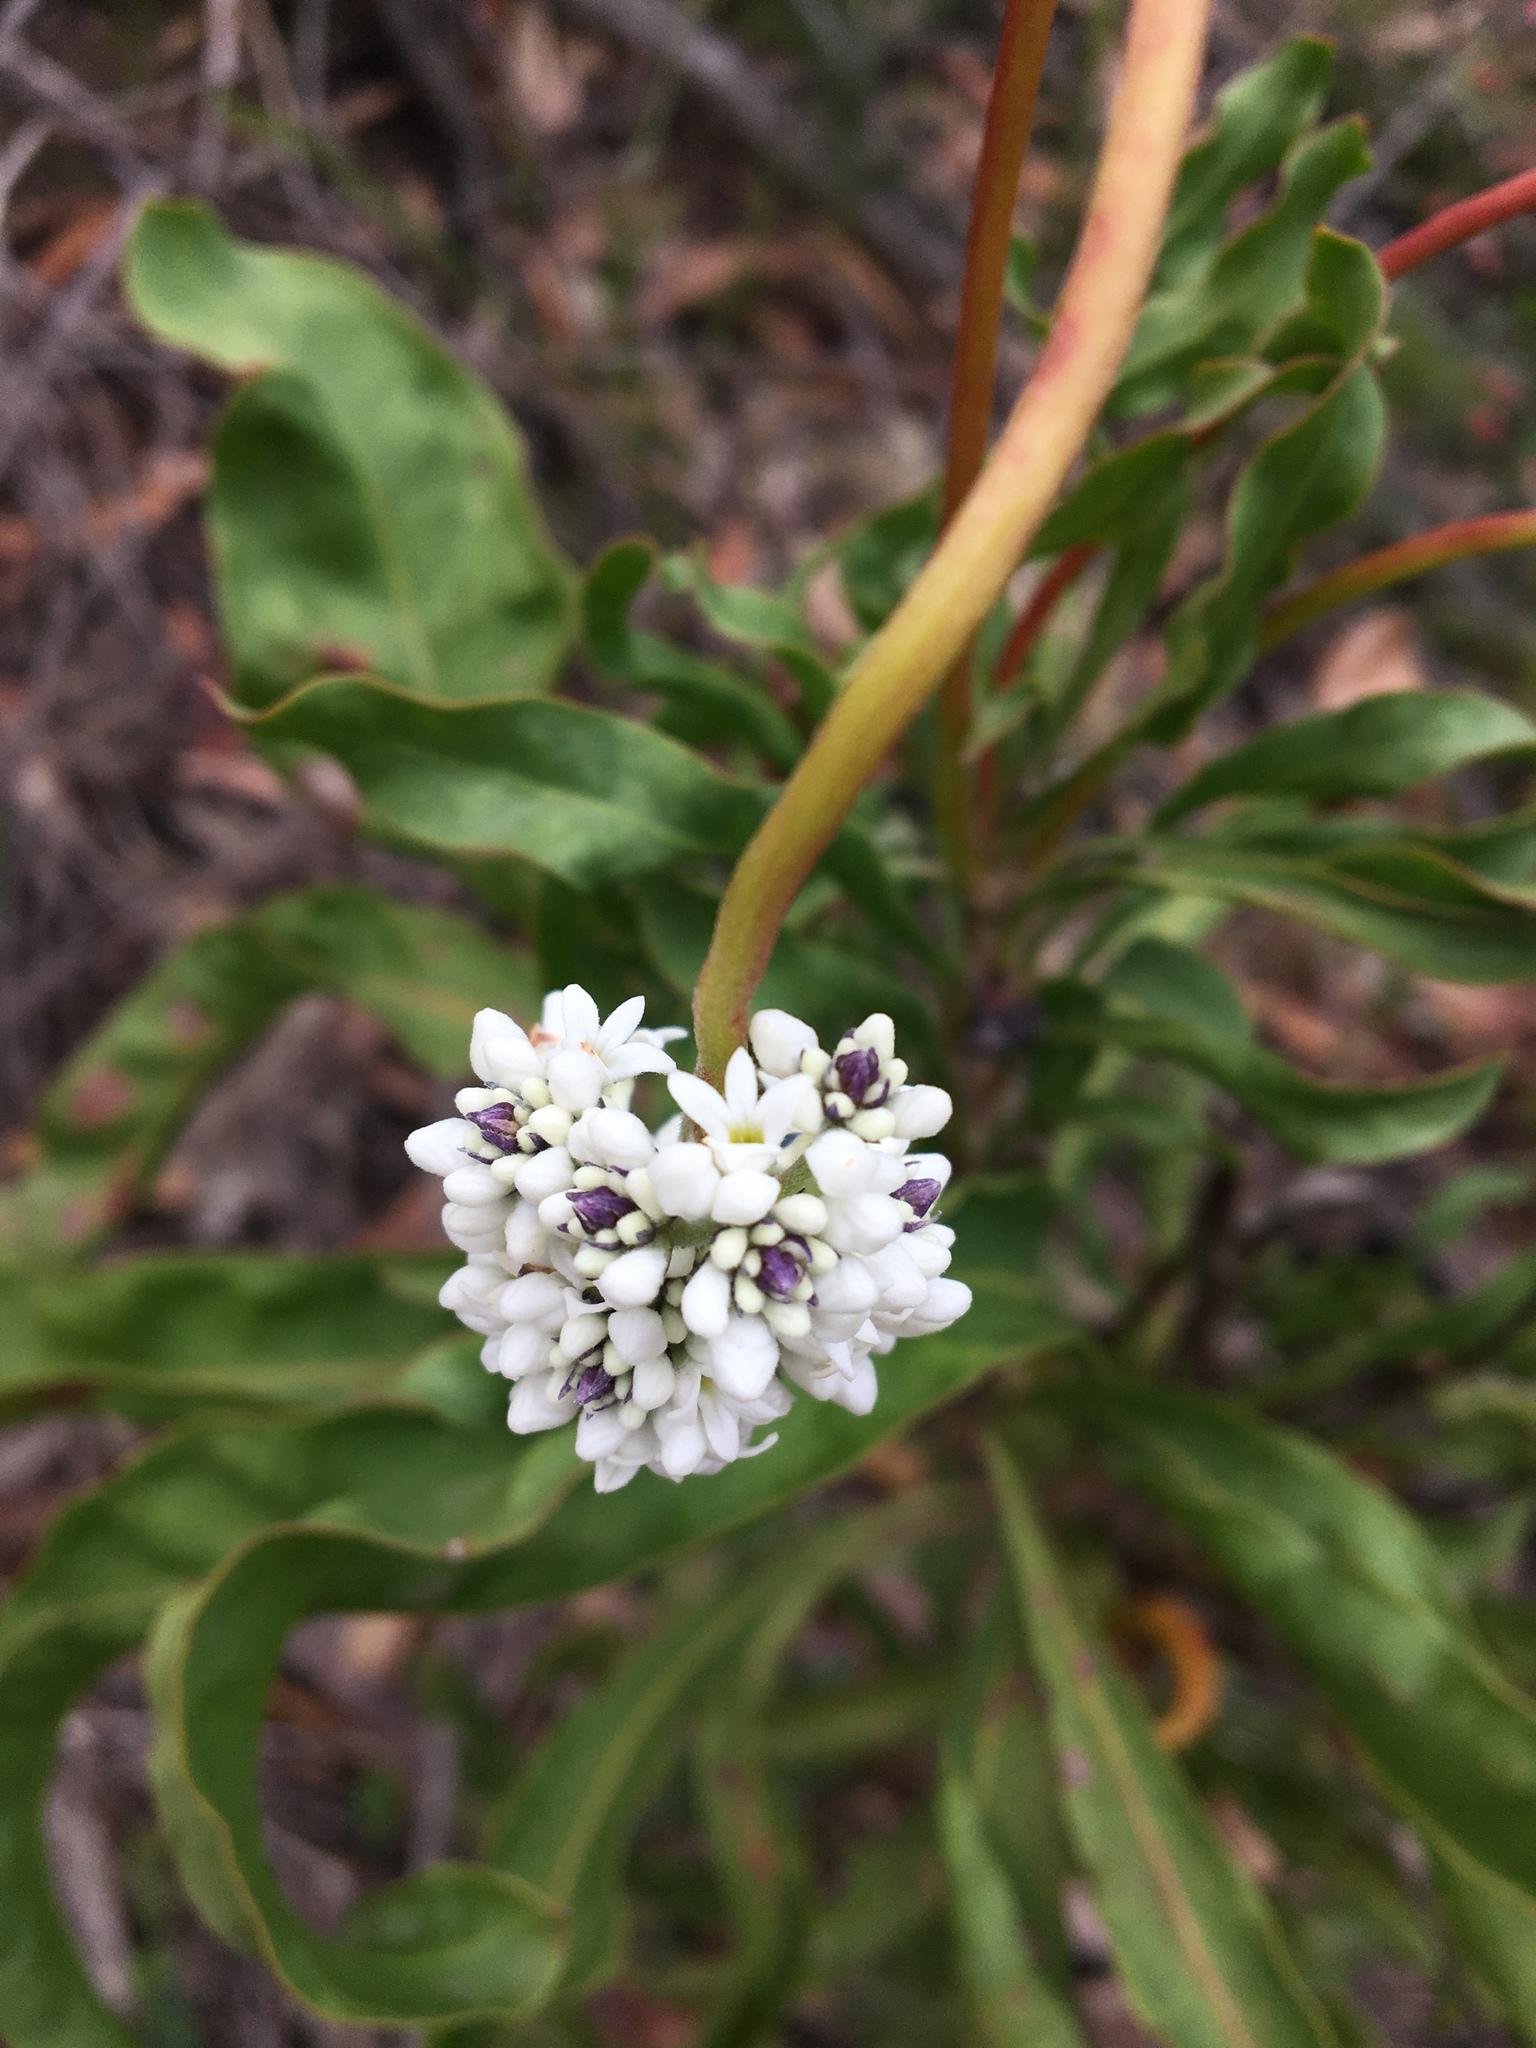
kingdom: Plantae
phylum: Tracheophyta
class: Magnoliopsida
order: Proteales
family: Proteaceae
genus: Conospermum
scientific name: Conospermum longifolium
